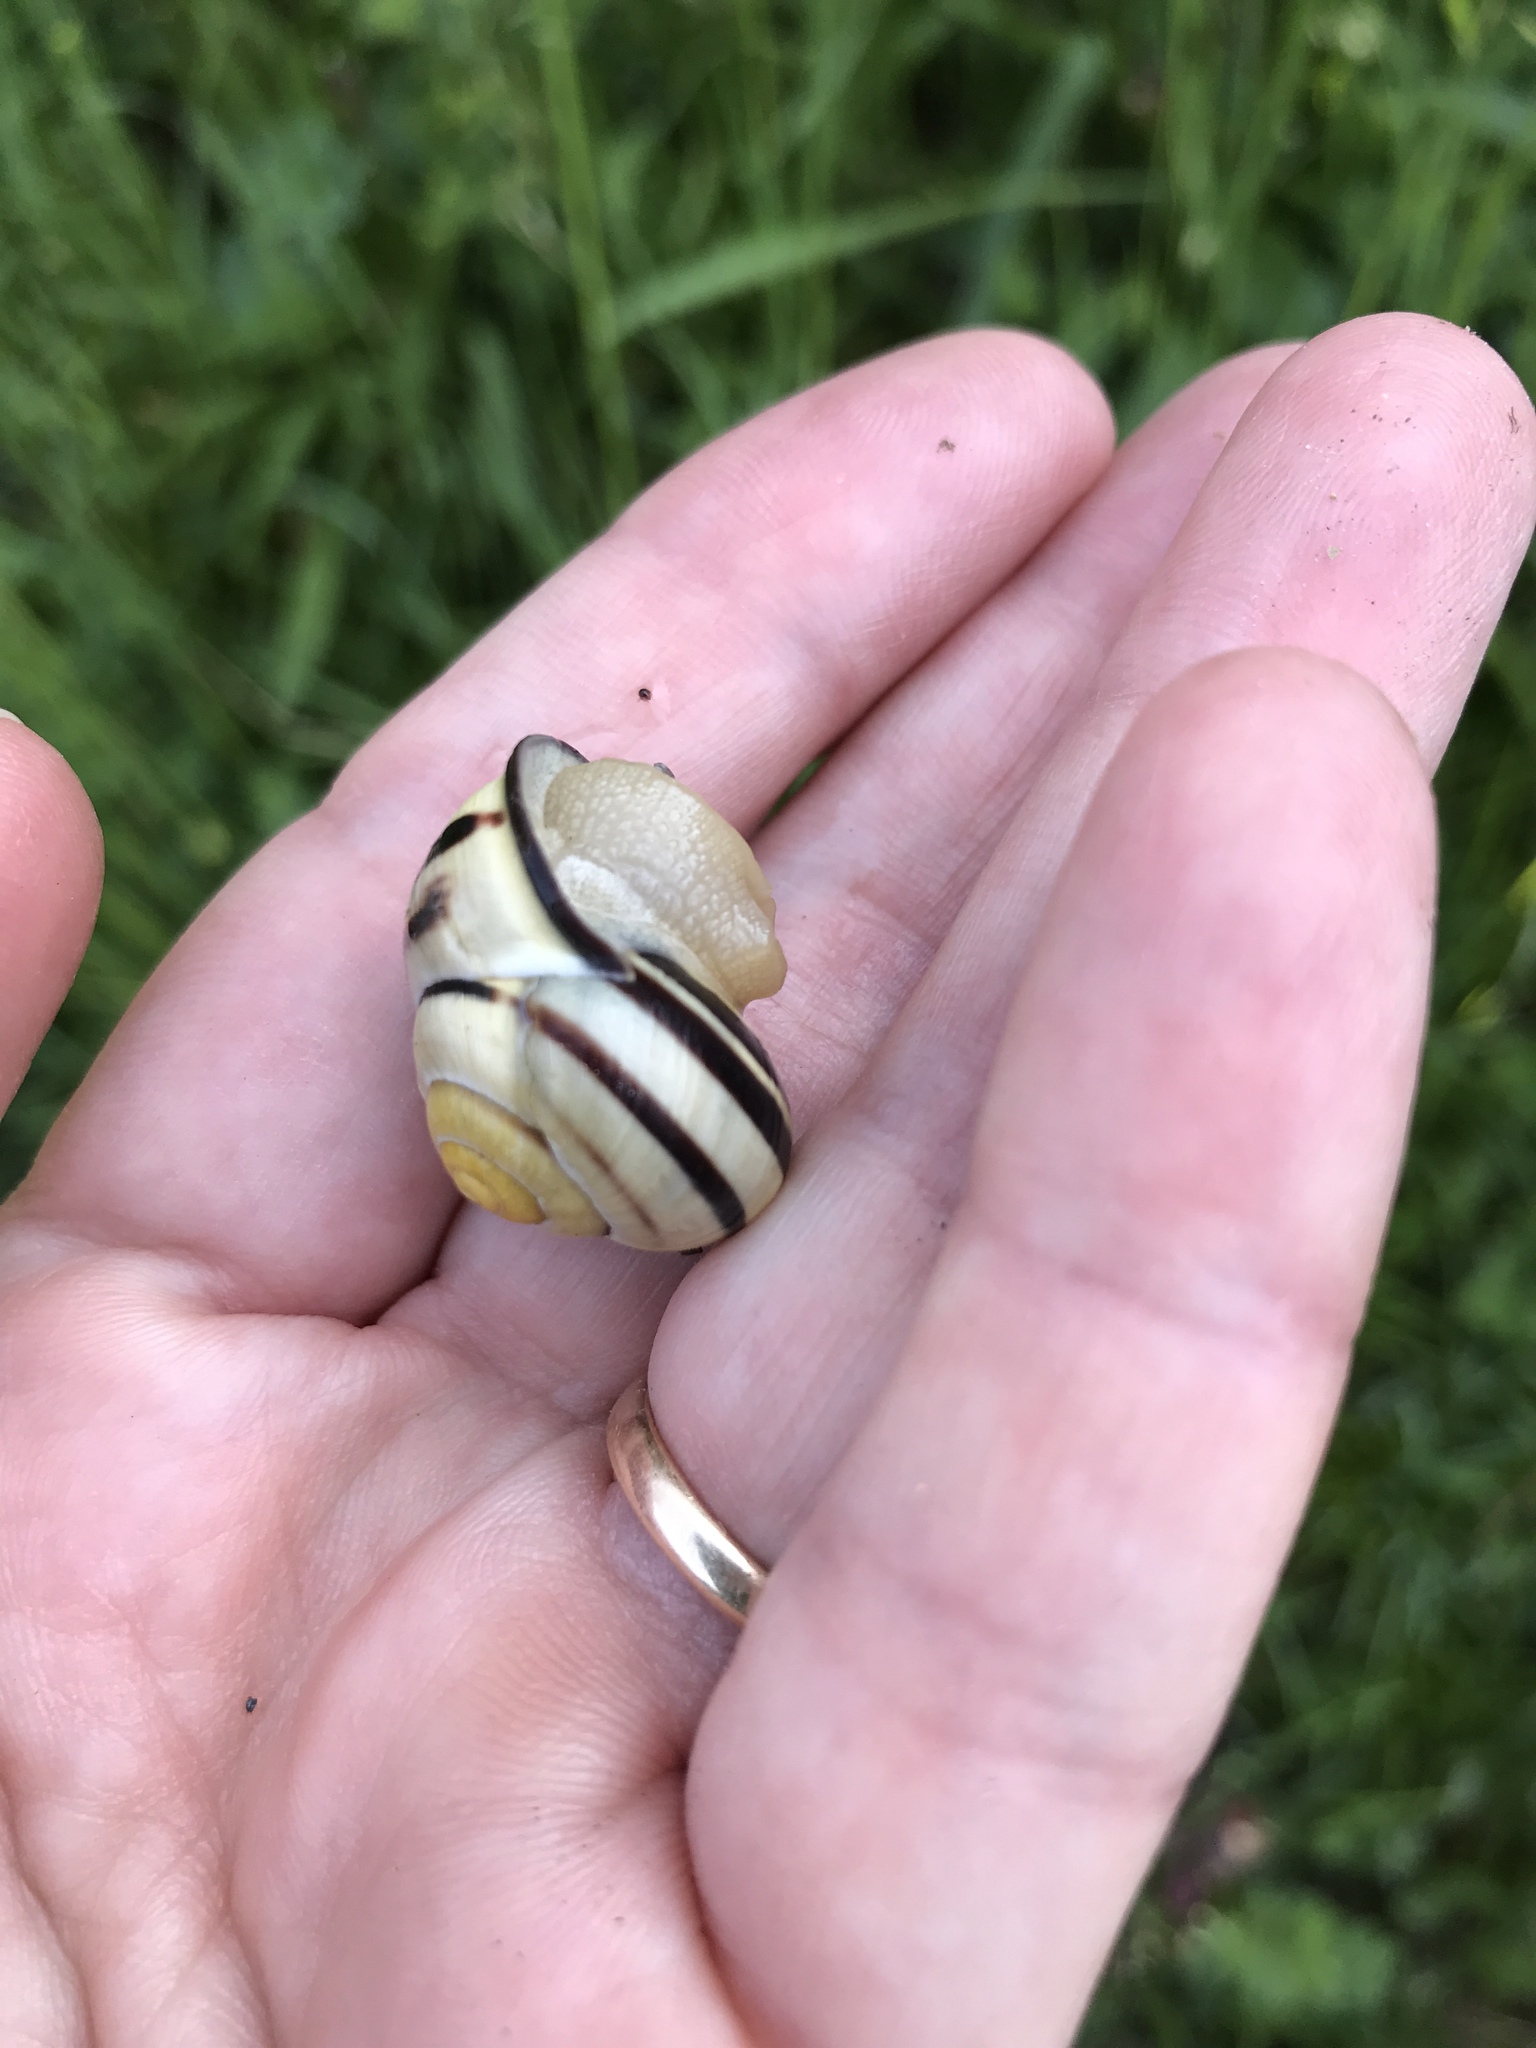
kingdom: Animalia
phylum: Mollusca
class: Gastropoda
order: Stylommatophora
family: Helicidae
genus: Cepaea
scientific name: Cepaea nemoralis
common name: Grovesnail
